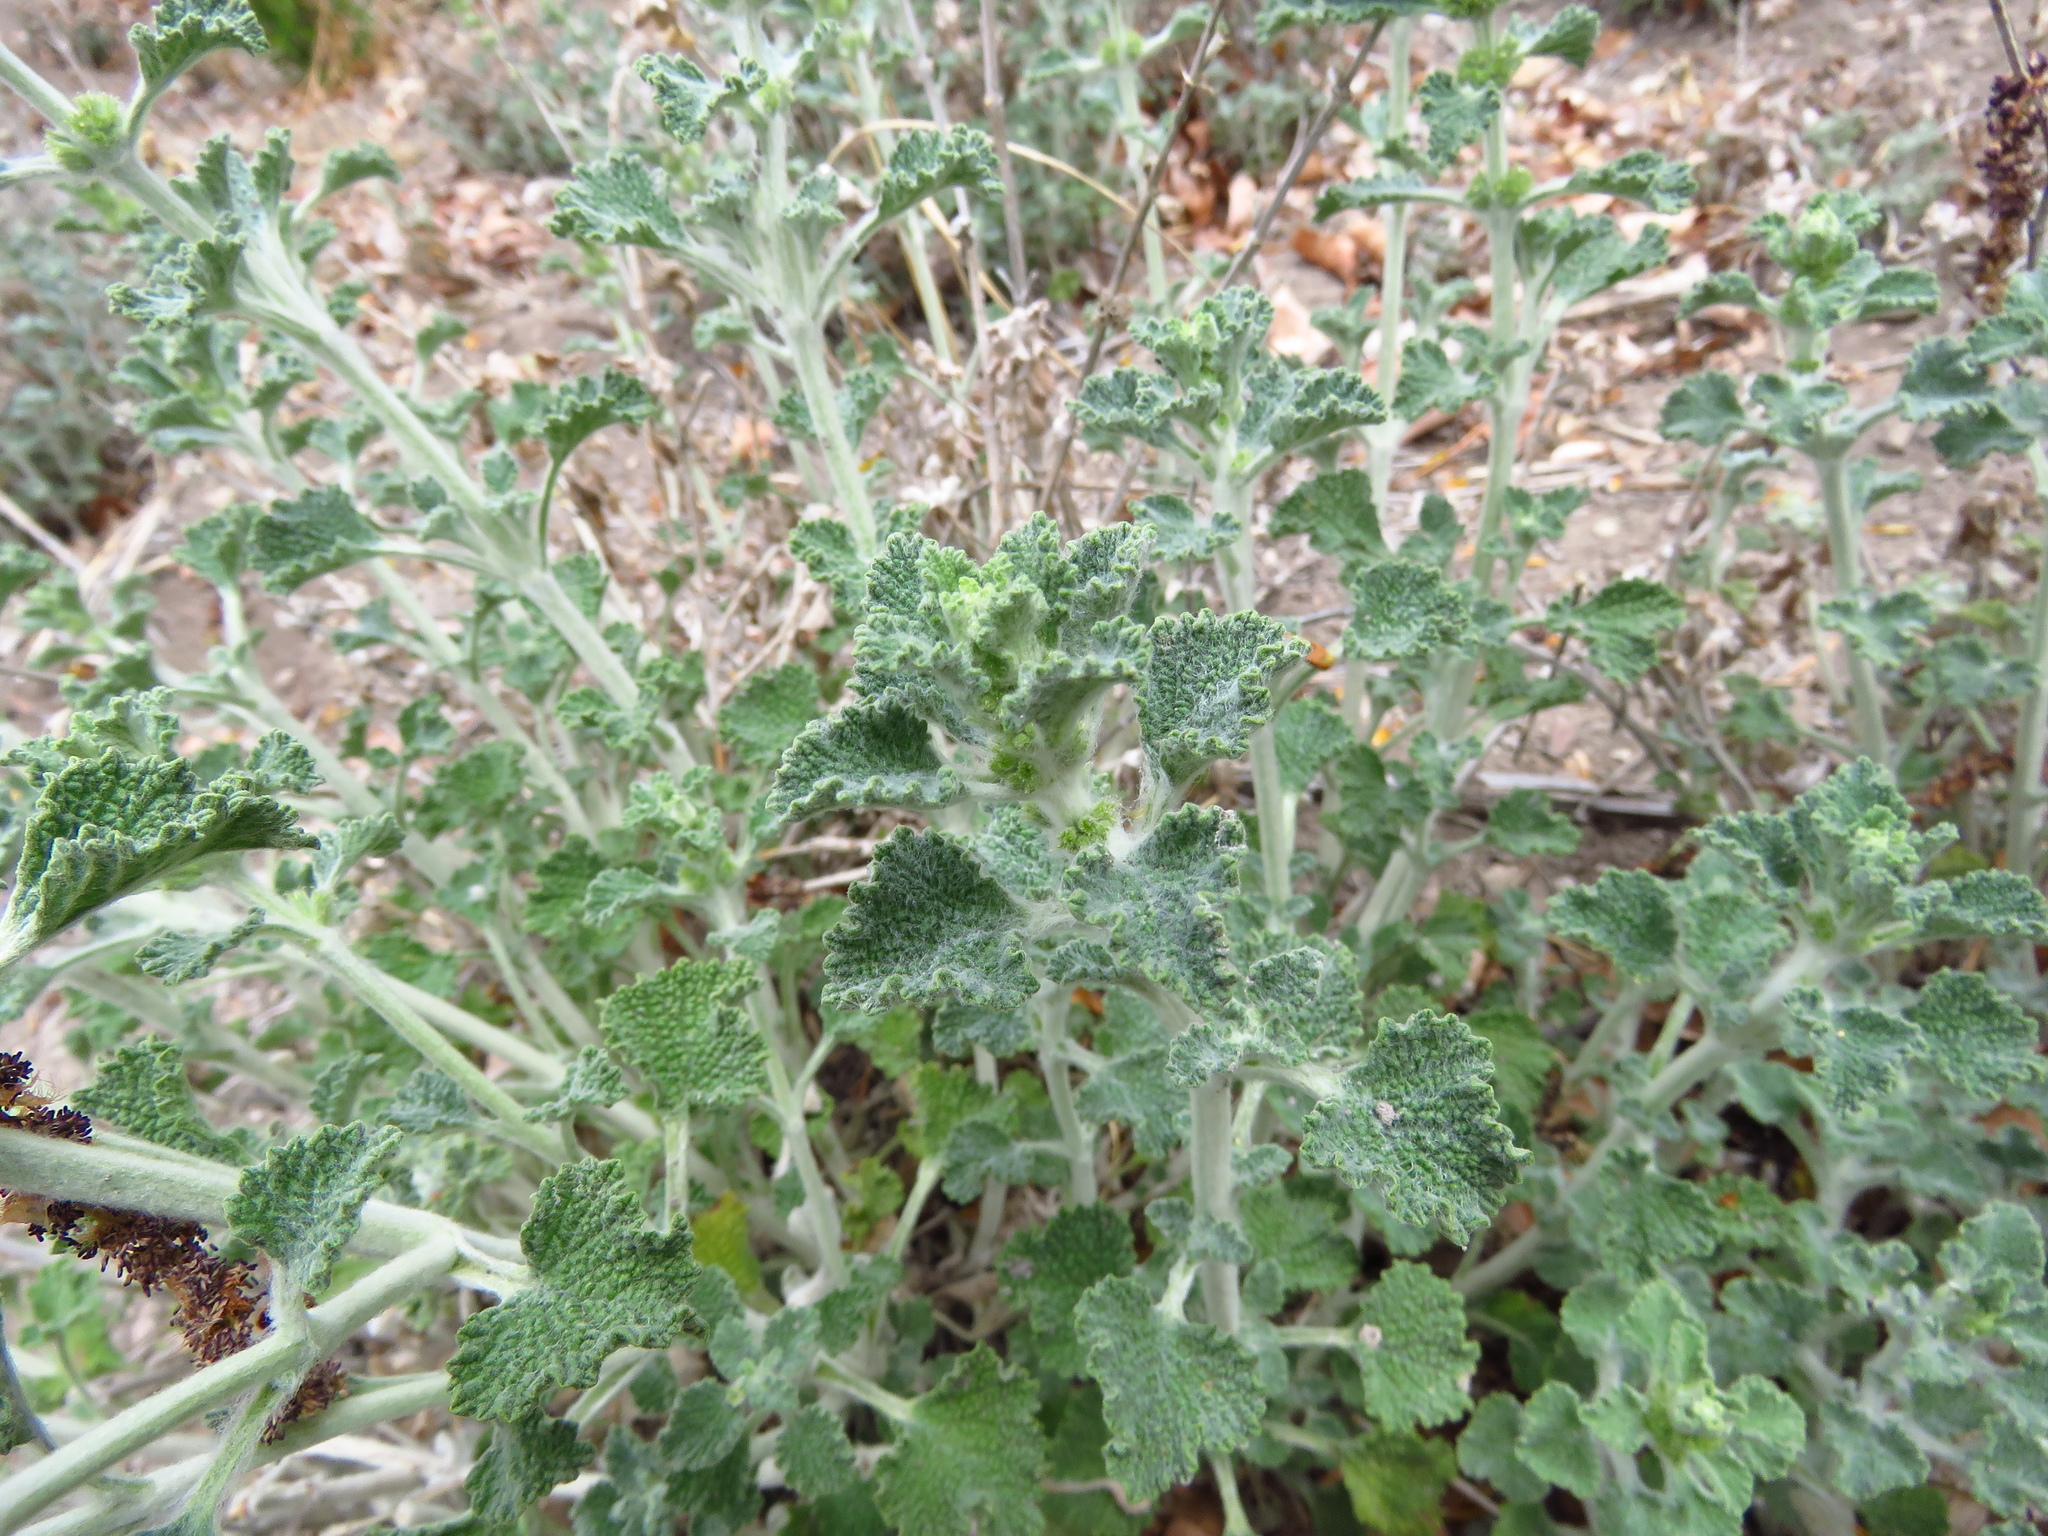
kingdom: Plantae
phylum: Tracheophyta
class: Magnoliopsida
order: Lamiales
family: Lamiaceae
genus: Marrubium
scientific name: Marrubium vulgare
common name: Horehound
